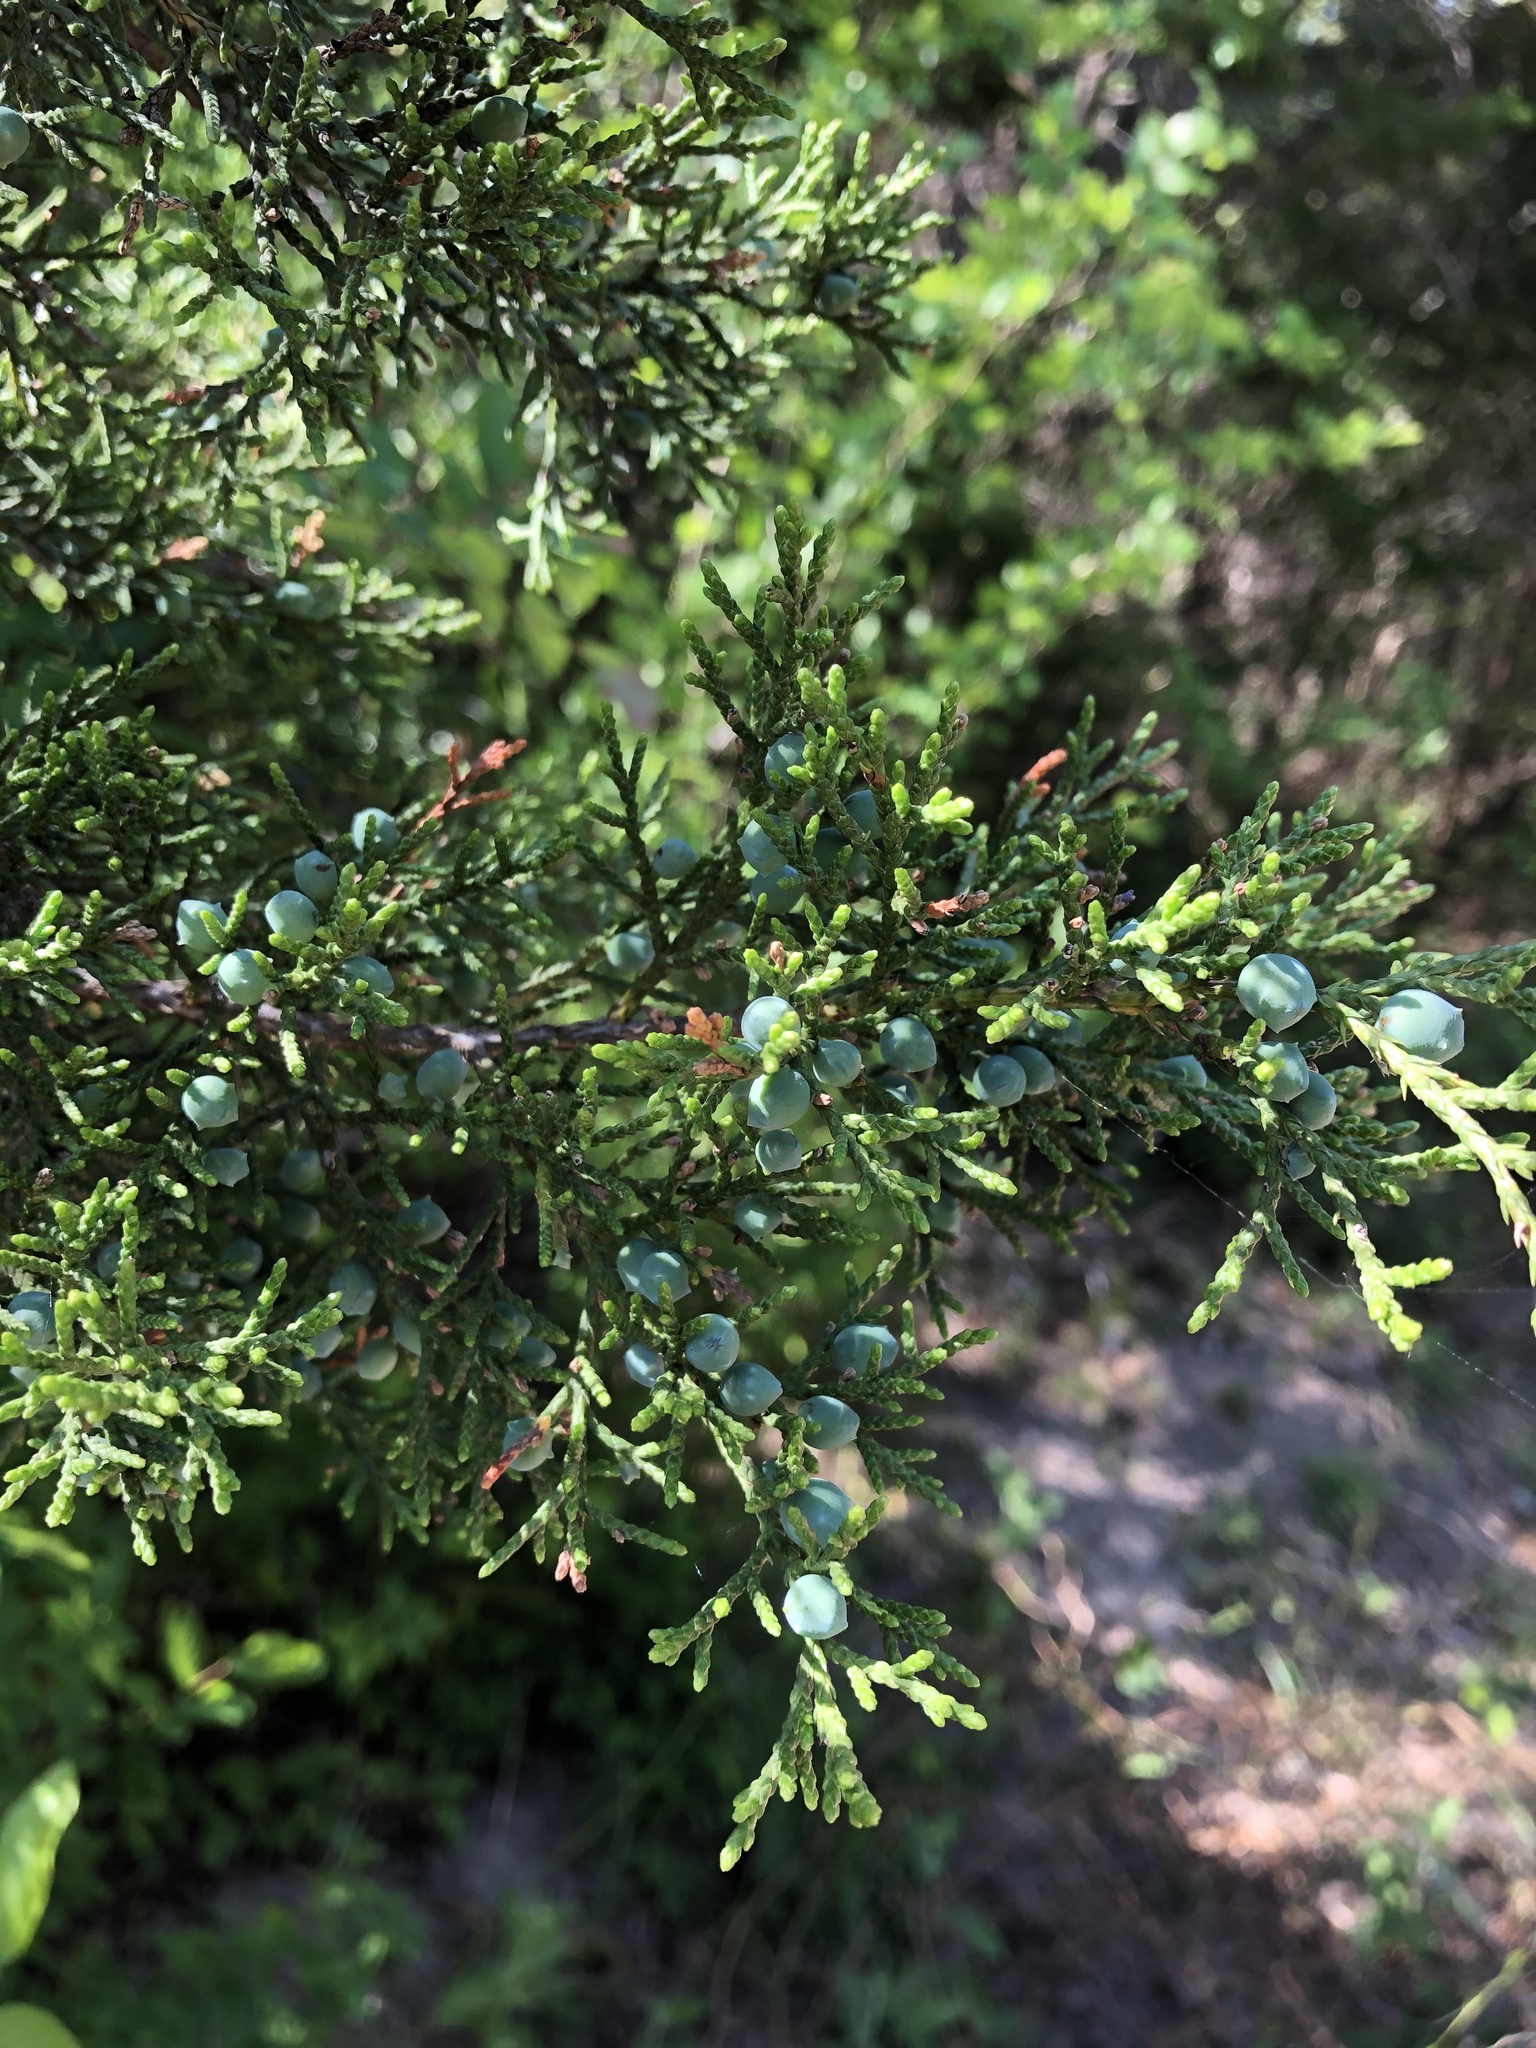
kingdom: Plantae
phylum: Tracheophyta
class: Pinopsida
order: Pinales
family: Cupressaceae
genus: Juniperus
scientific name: Juniperus ashei
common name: Mexican juniper
